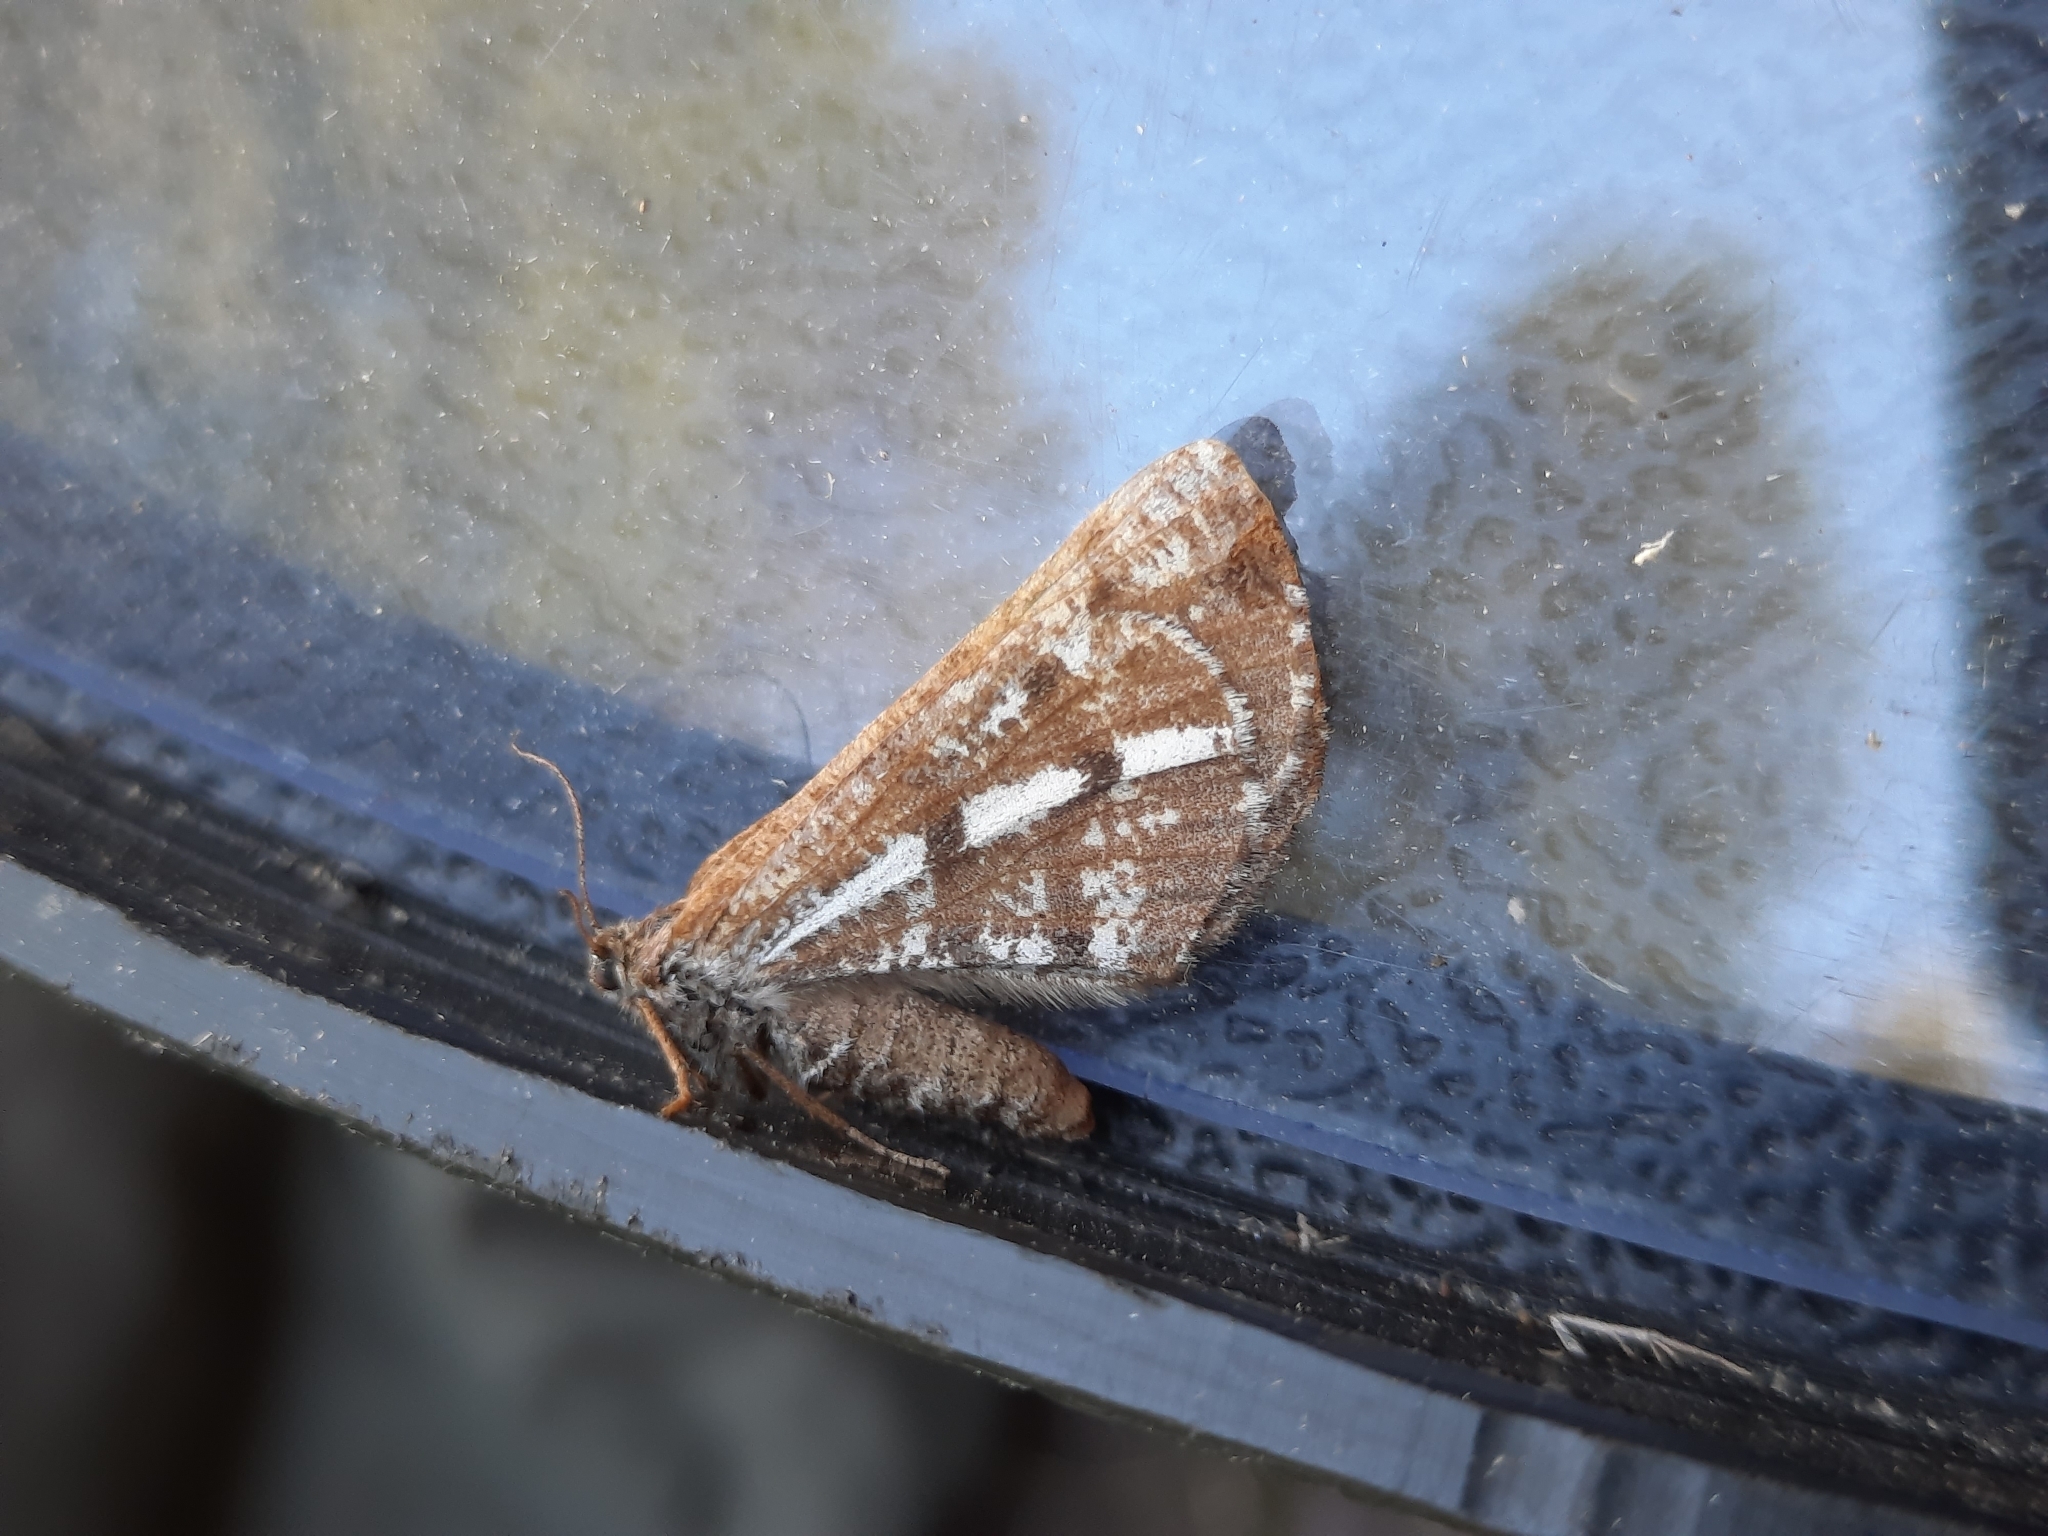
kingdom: Animalia
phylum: Arthropoda
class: Insecta
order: Lepidoptera
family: Geometridae
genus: Bupalus
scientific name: Bupalus piniaria
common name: Bordered white
